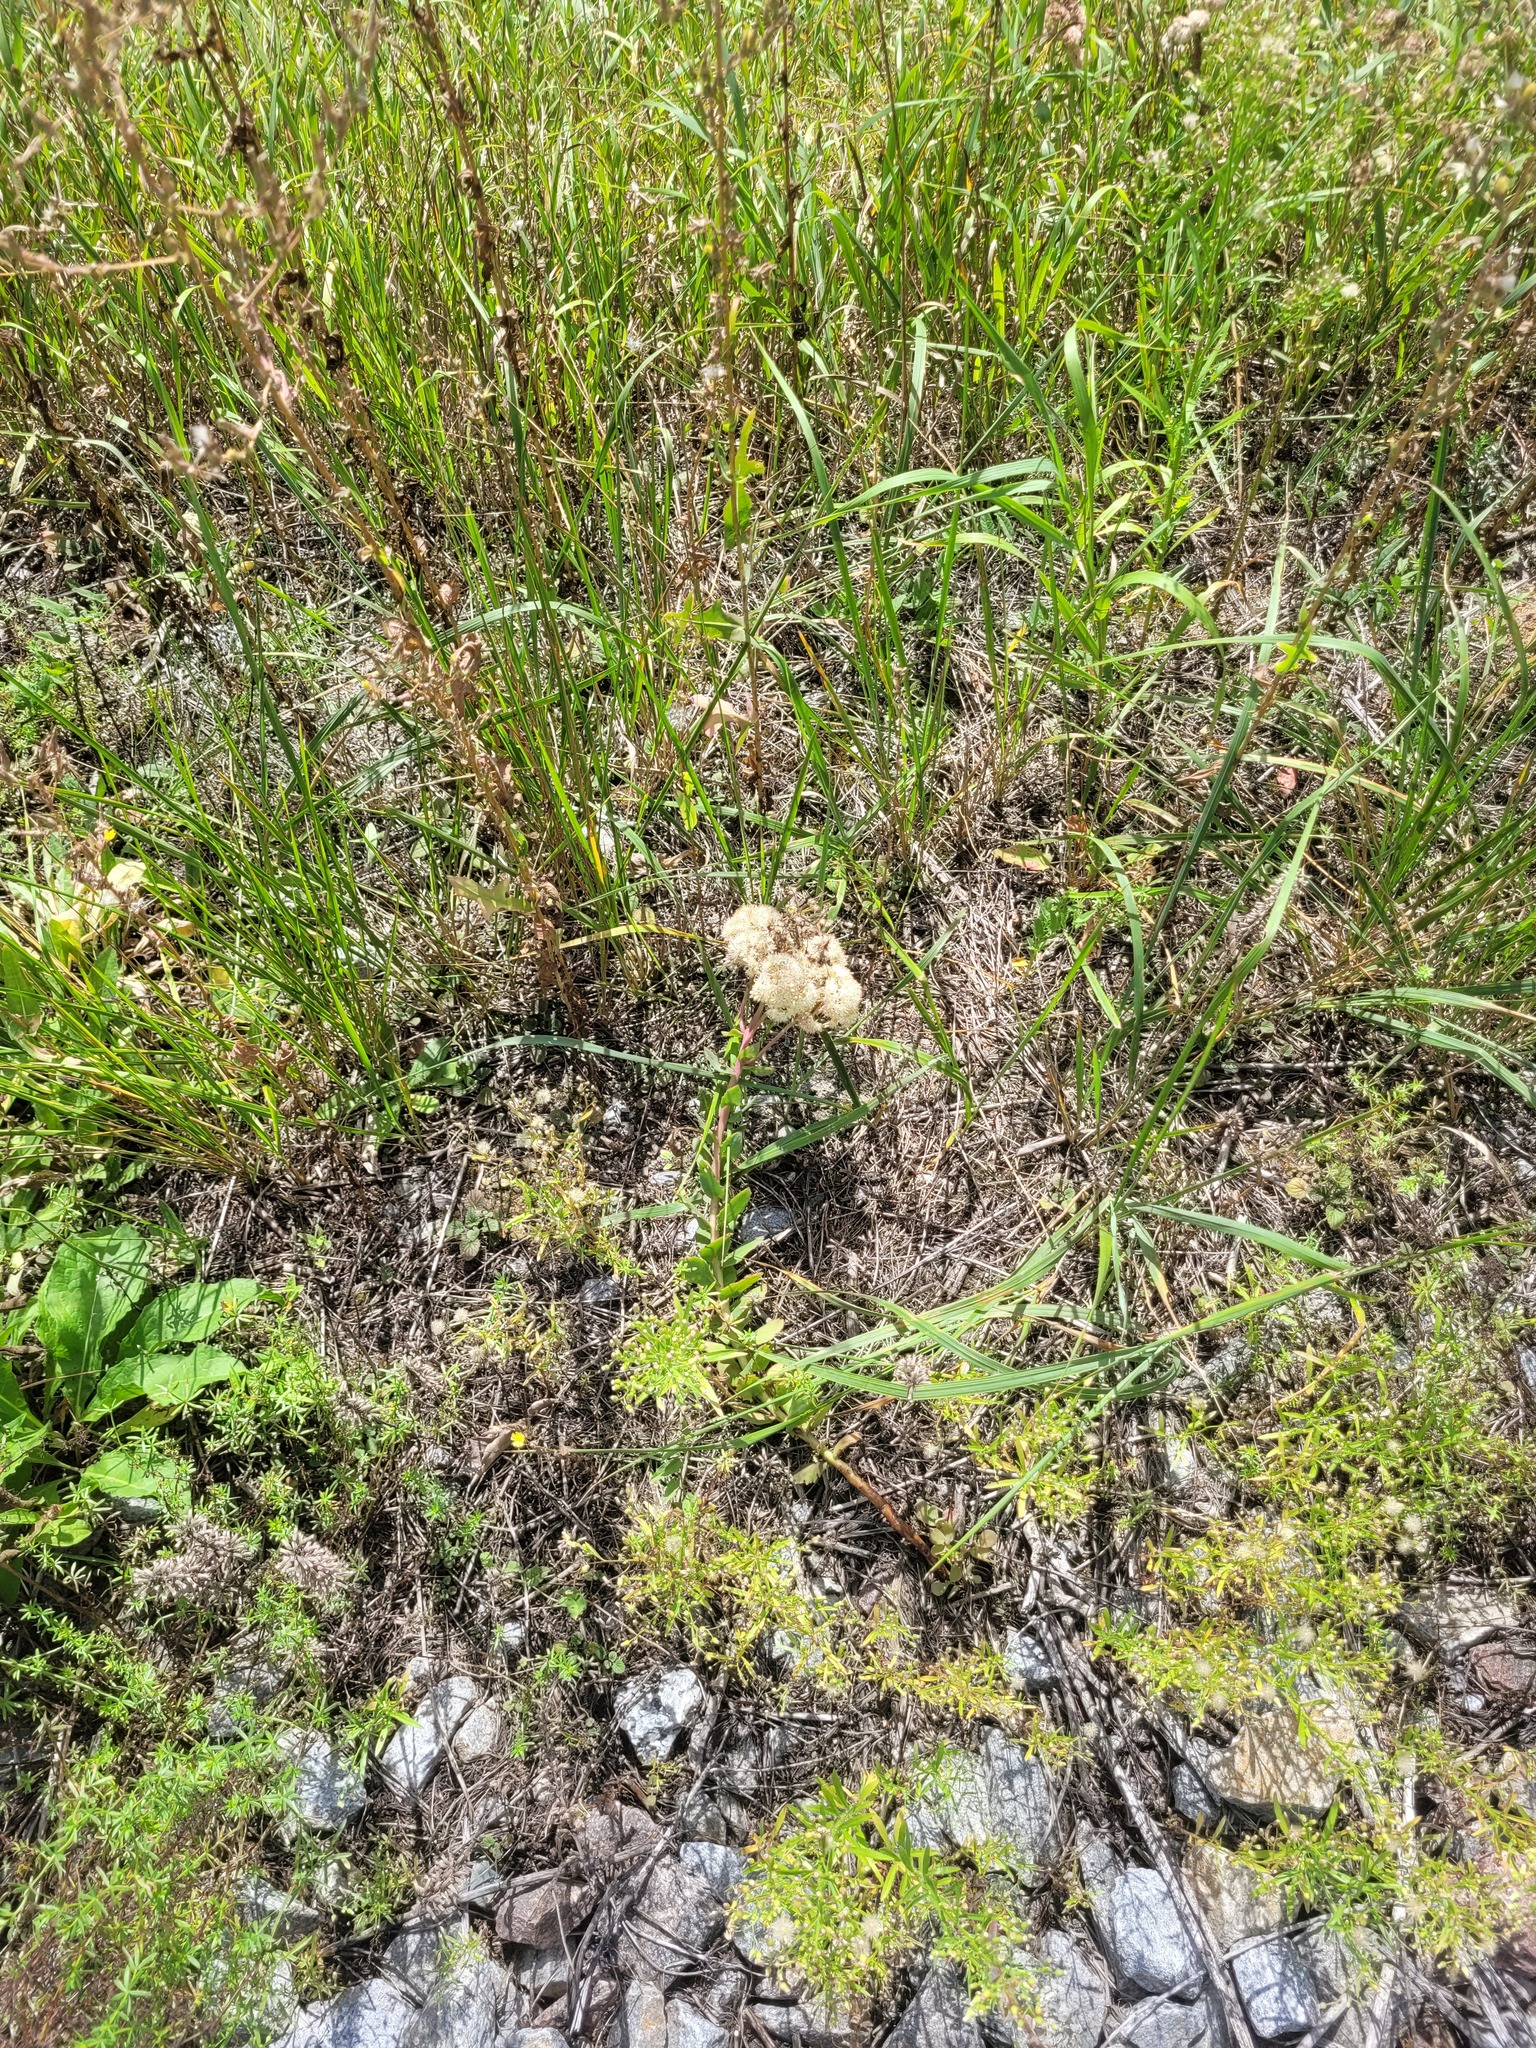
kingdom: Plantae
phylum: Tracheophyta
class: Magnoliopsida
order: Saxifragales
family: Crassulaceae
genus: Hylotelephium
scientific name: Hylotelephium maximum
